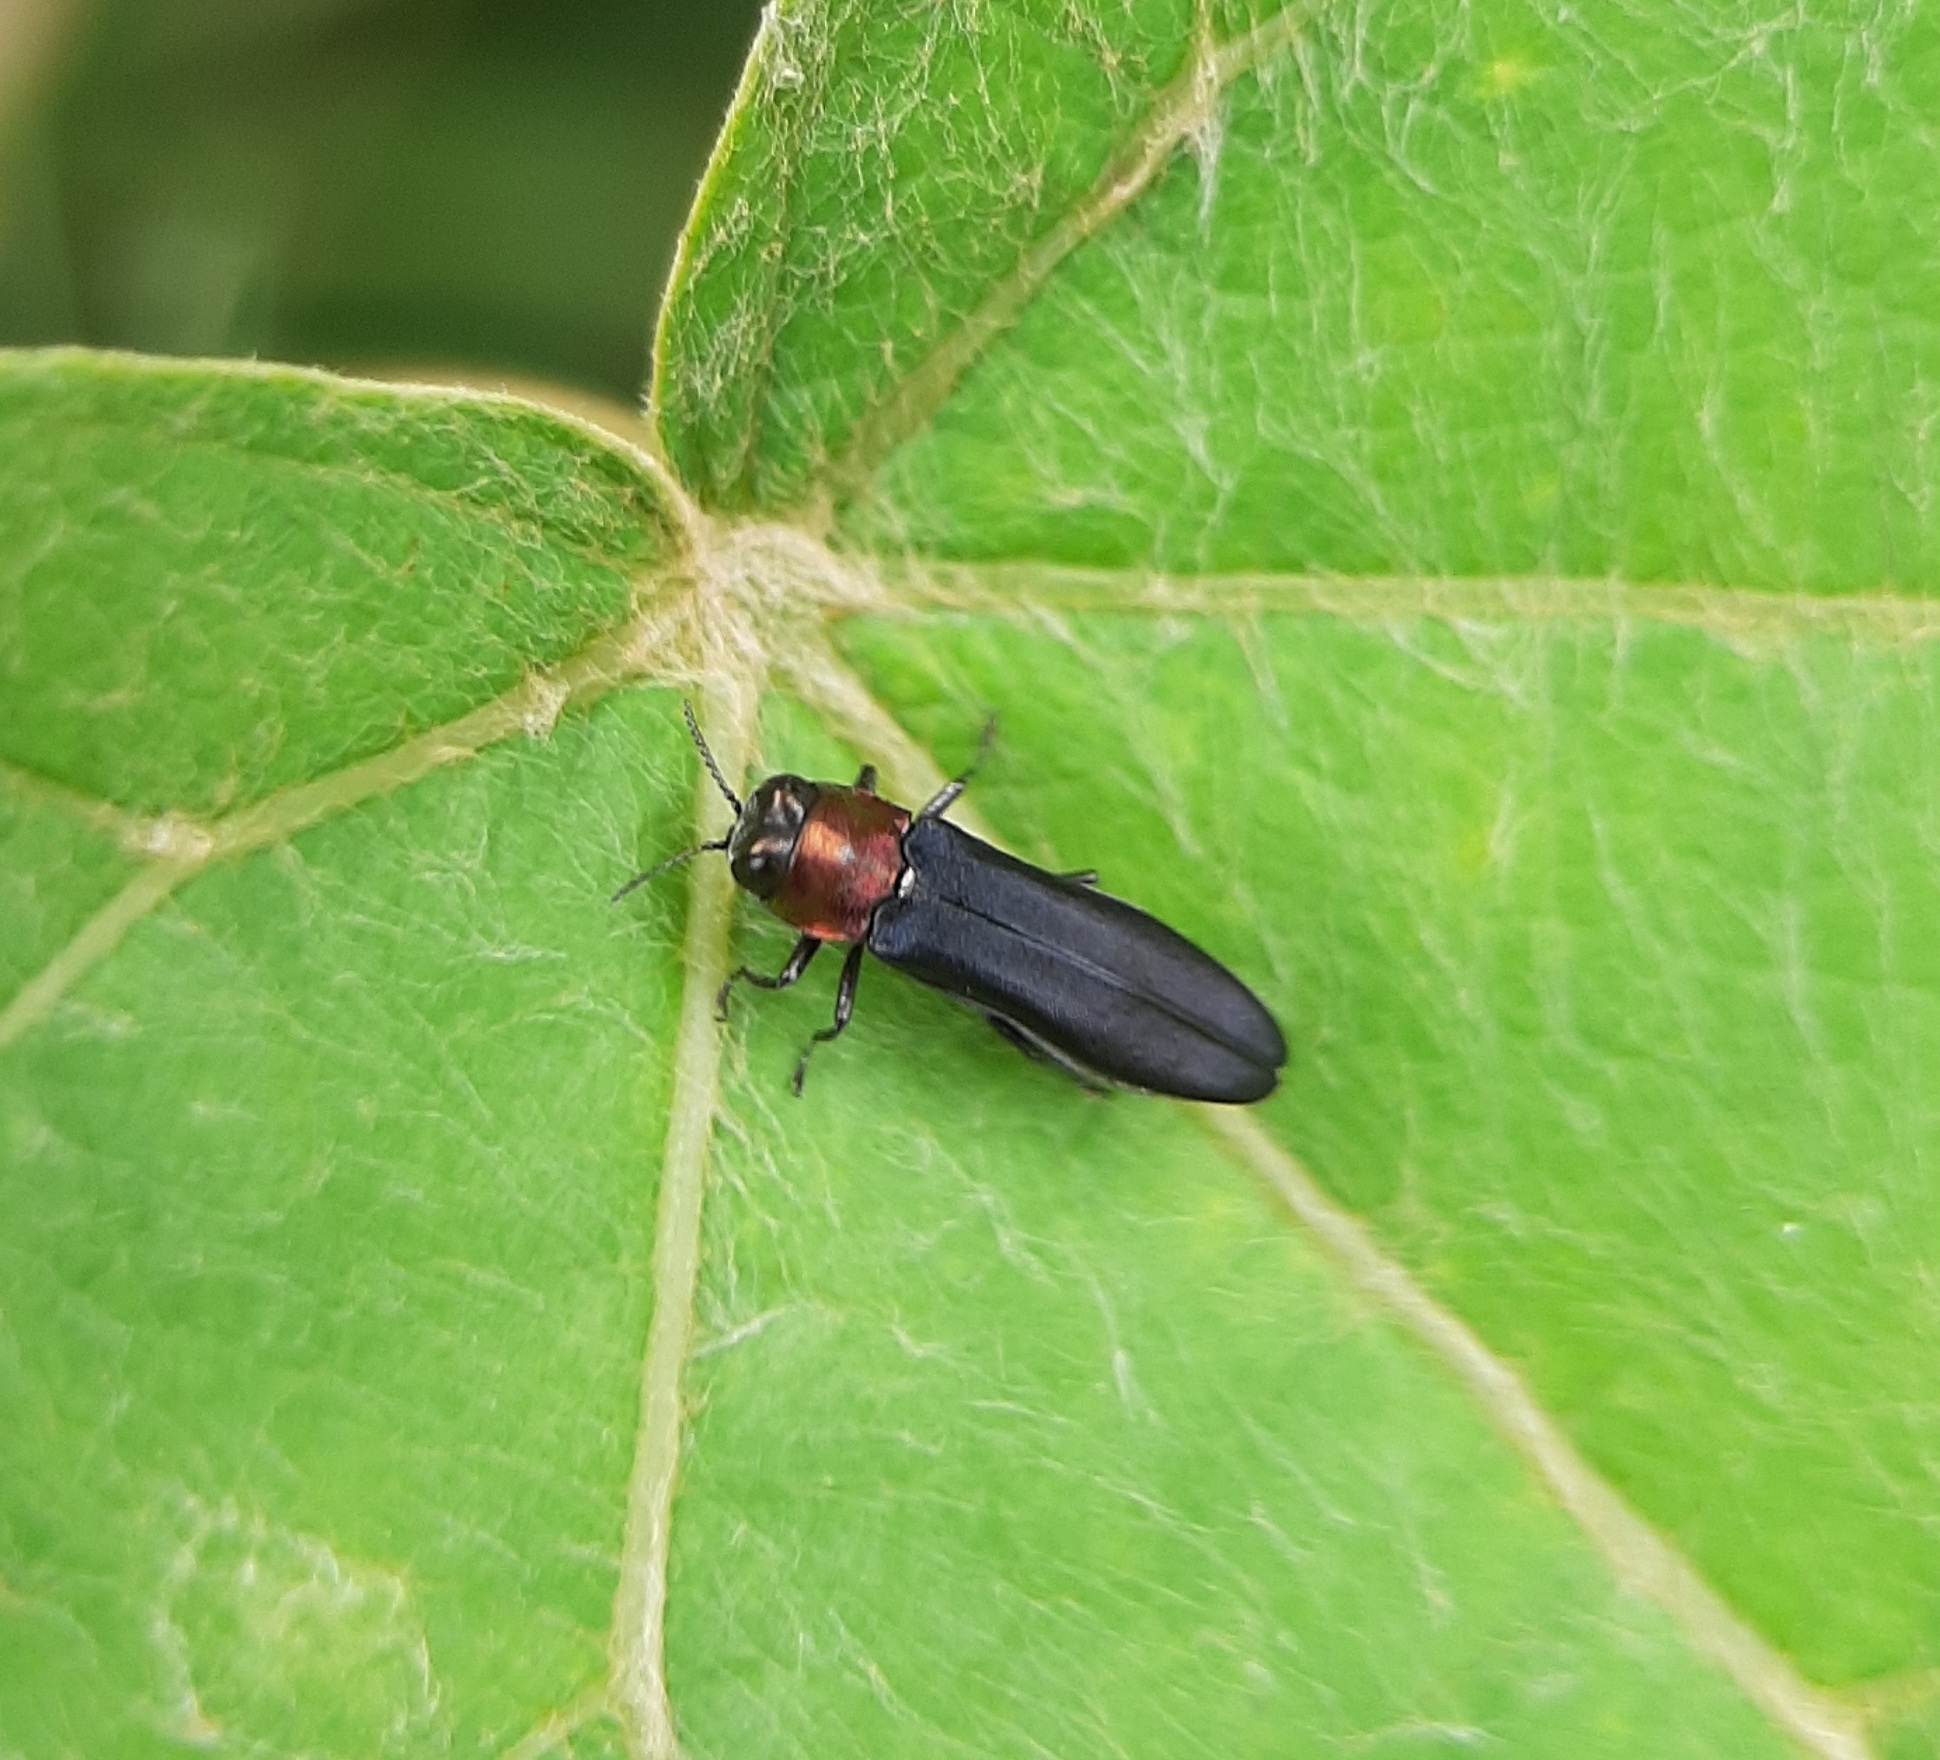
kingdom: Animalia
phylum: Arthropoda
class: Insecta
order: Coleoptera
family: Buprestidae
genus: Agrilus
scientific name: Agrilus ruficollis
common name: Red-necked cane borer beetle
